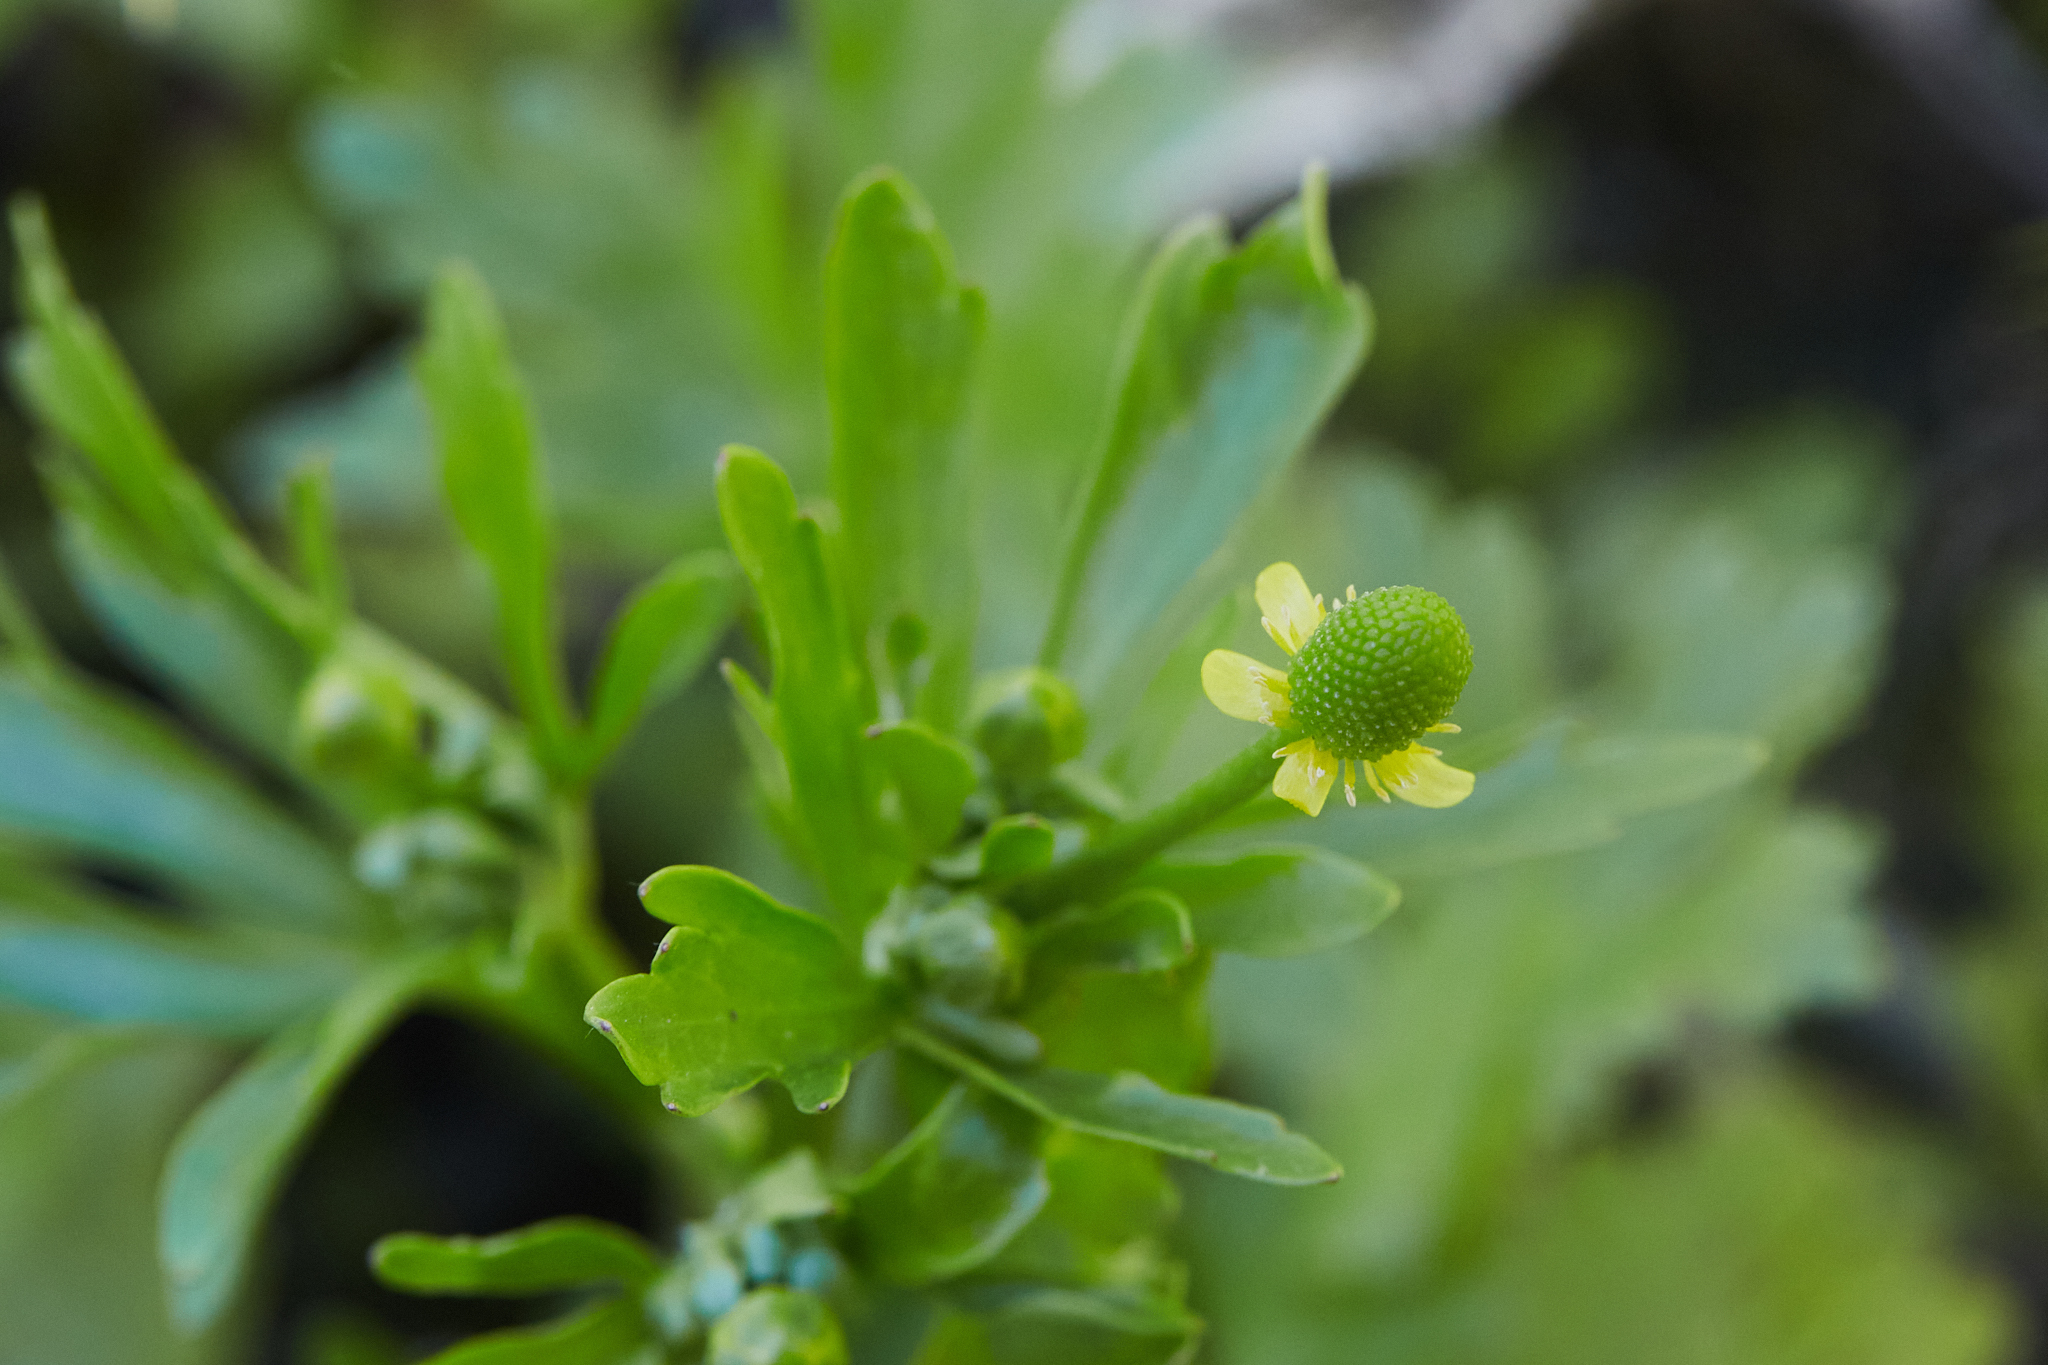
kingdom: Plantae
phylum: Tracheophyta
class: Magnoliopsida
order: Ranunculales
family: Ranunculaceae
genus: Ranunculus
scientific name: Ranunculus sceleratus
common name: Celery-leaved buttercup
